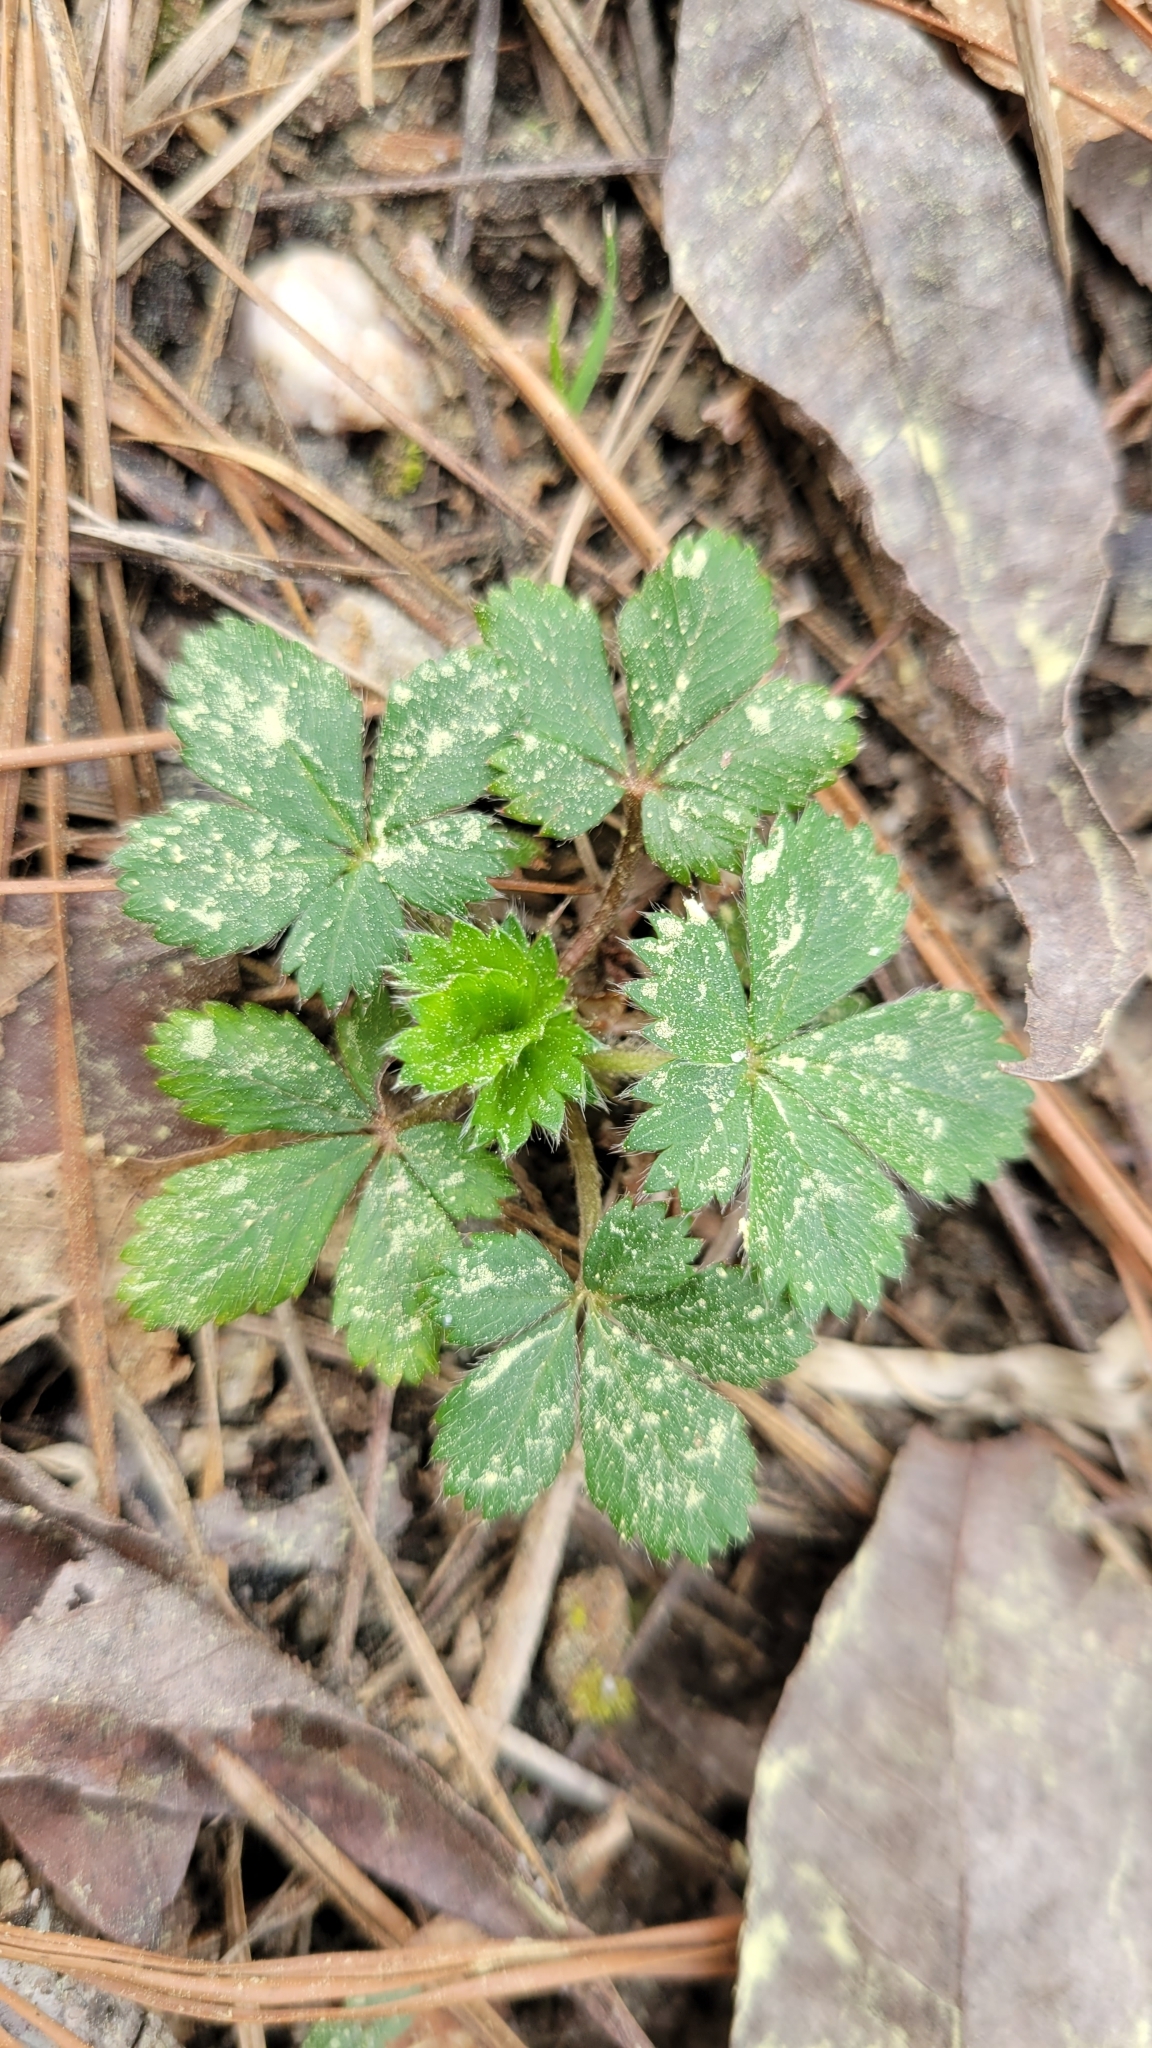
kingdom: Plantae
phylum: Tracheophyta
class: Magnoliopsida
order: Rosales
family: Rosaceae
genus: Potentilla
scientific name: Potentilla canadensis
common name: Canada cinquefoil
